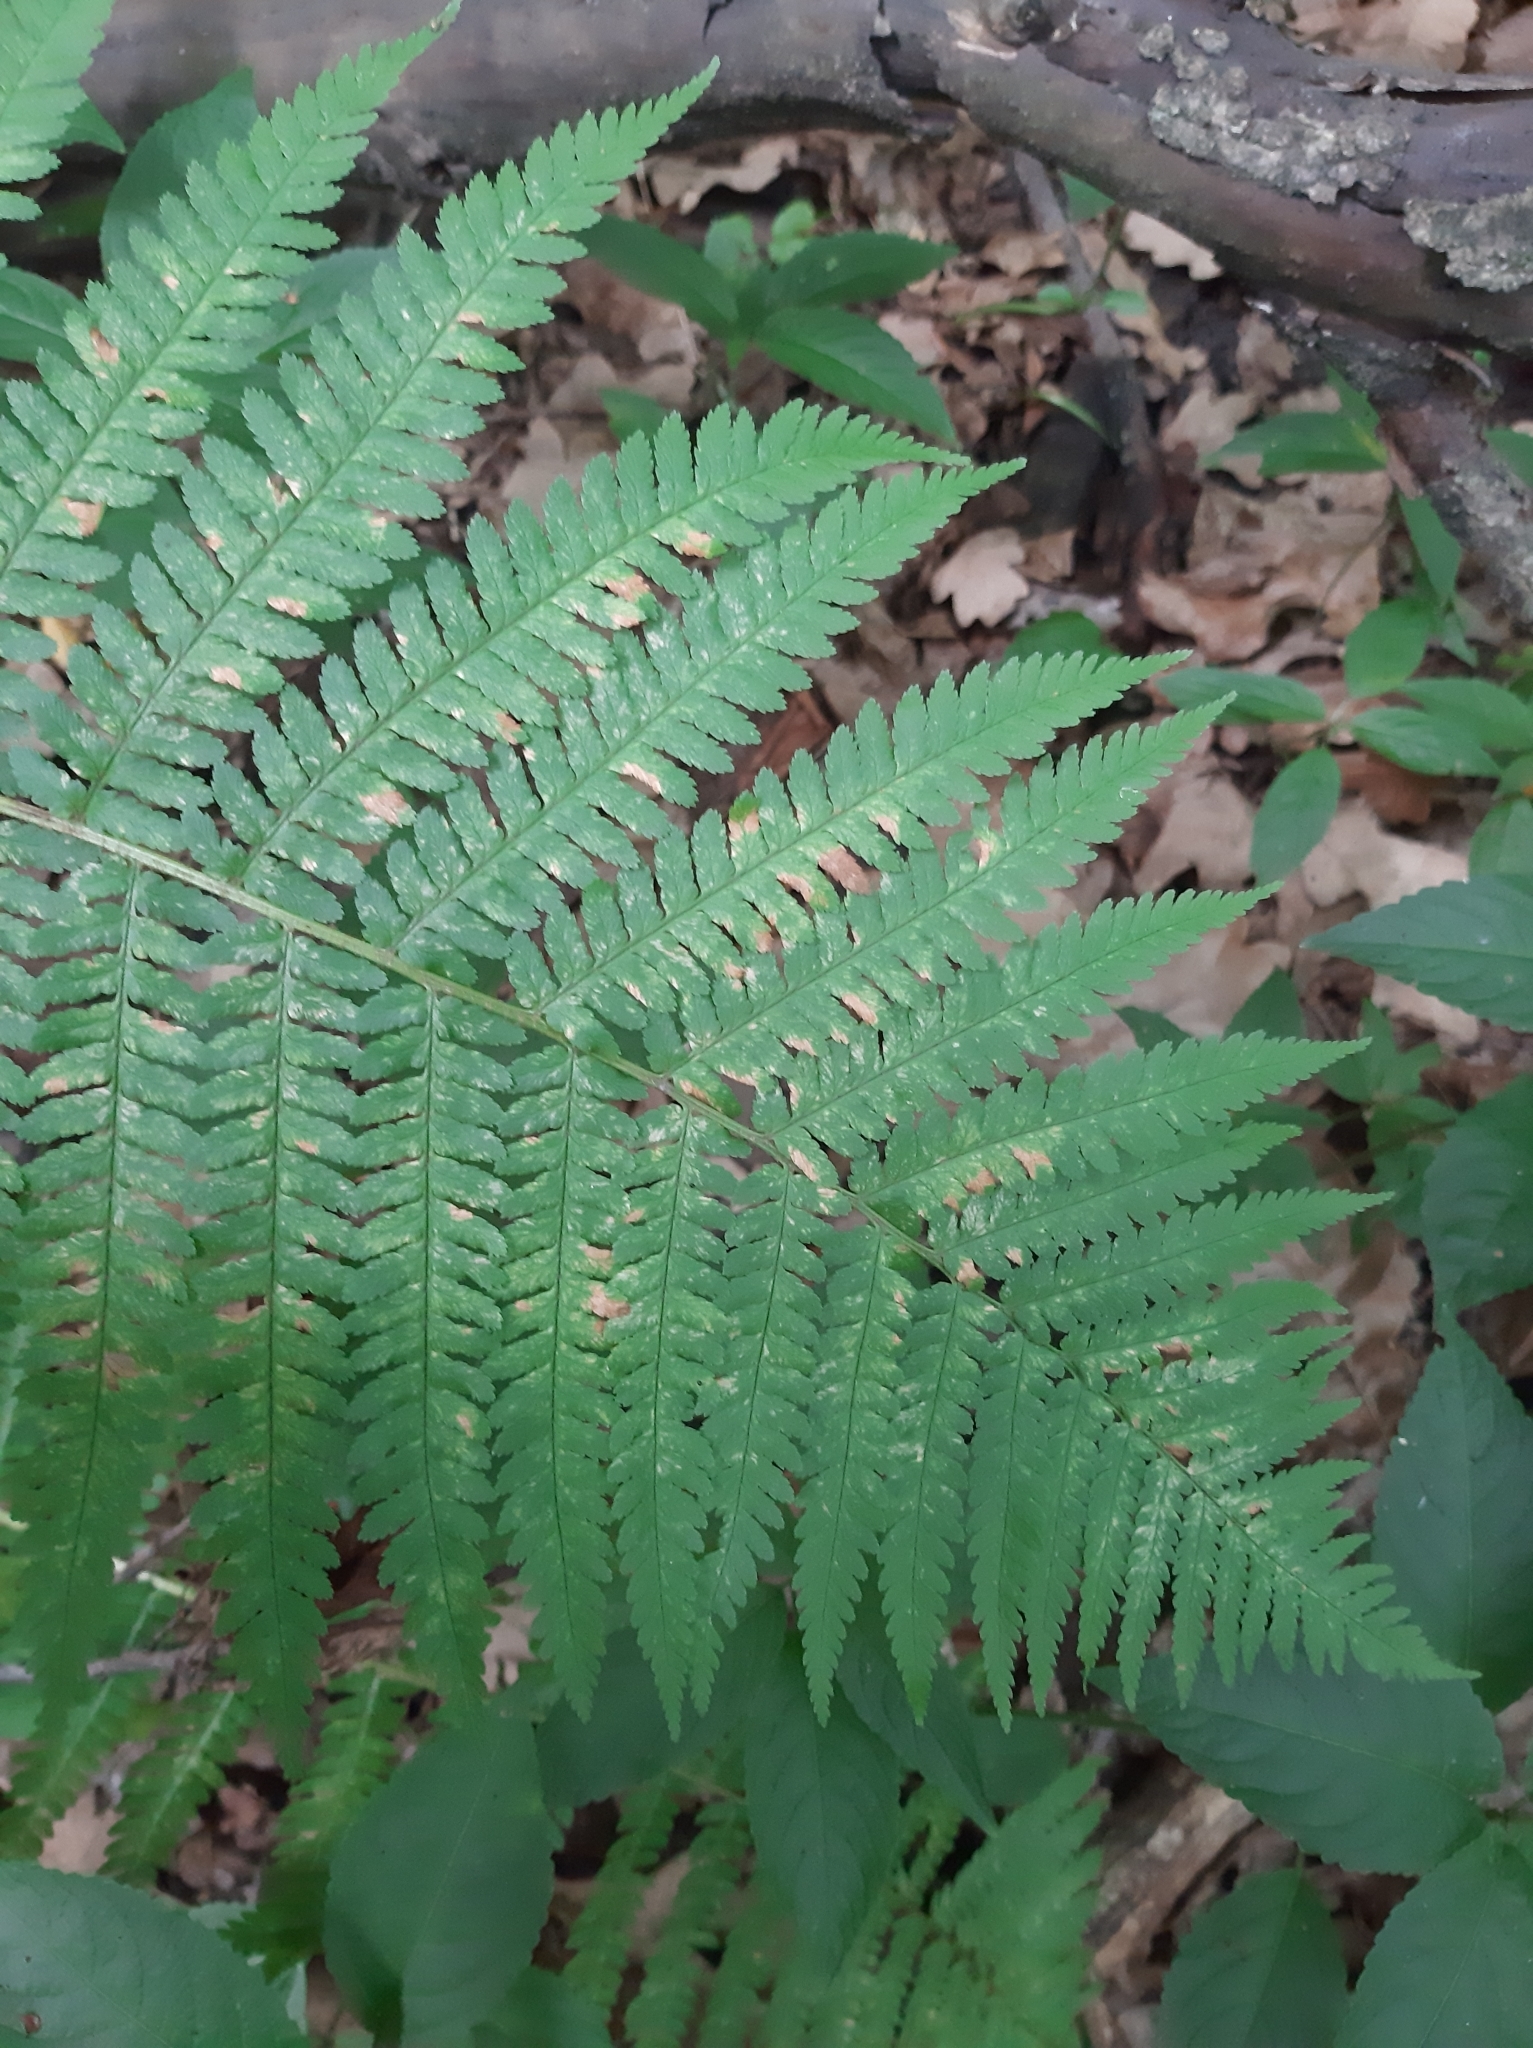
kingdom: Plantae
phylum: Tracheophyta
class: Polypodiopsida
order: Polypodiales
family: Dryopteridaceae
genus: Dryopteris
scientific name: Dryopteris filix-mas
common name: Male fern
